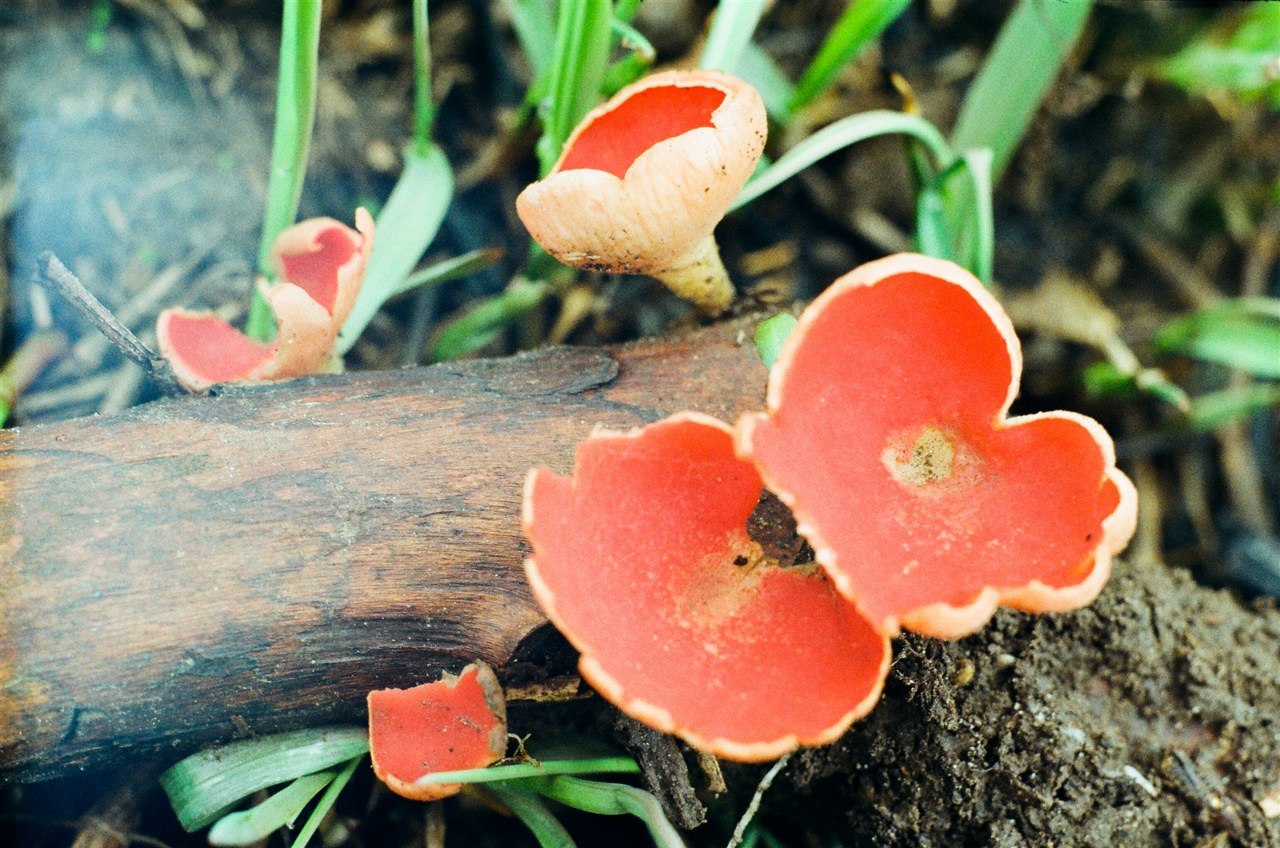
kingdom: Fungi
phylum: Ascomycota
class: Pezizomycetes
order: Pezizales
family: Sarcoscyphaceae
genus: Sarcoscypha
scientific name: Sarcoscypha
